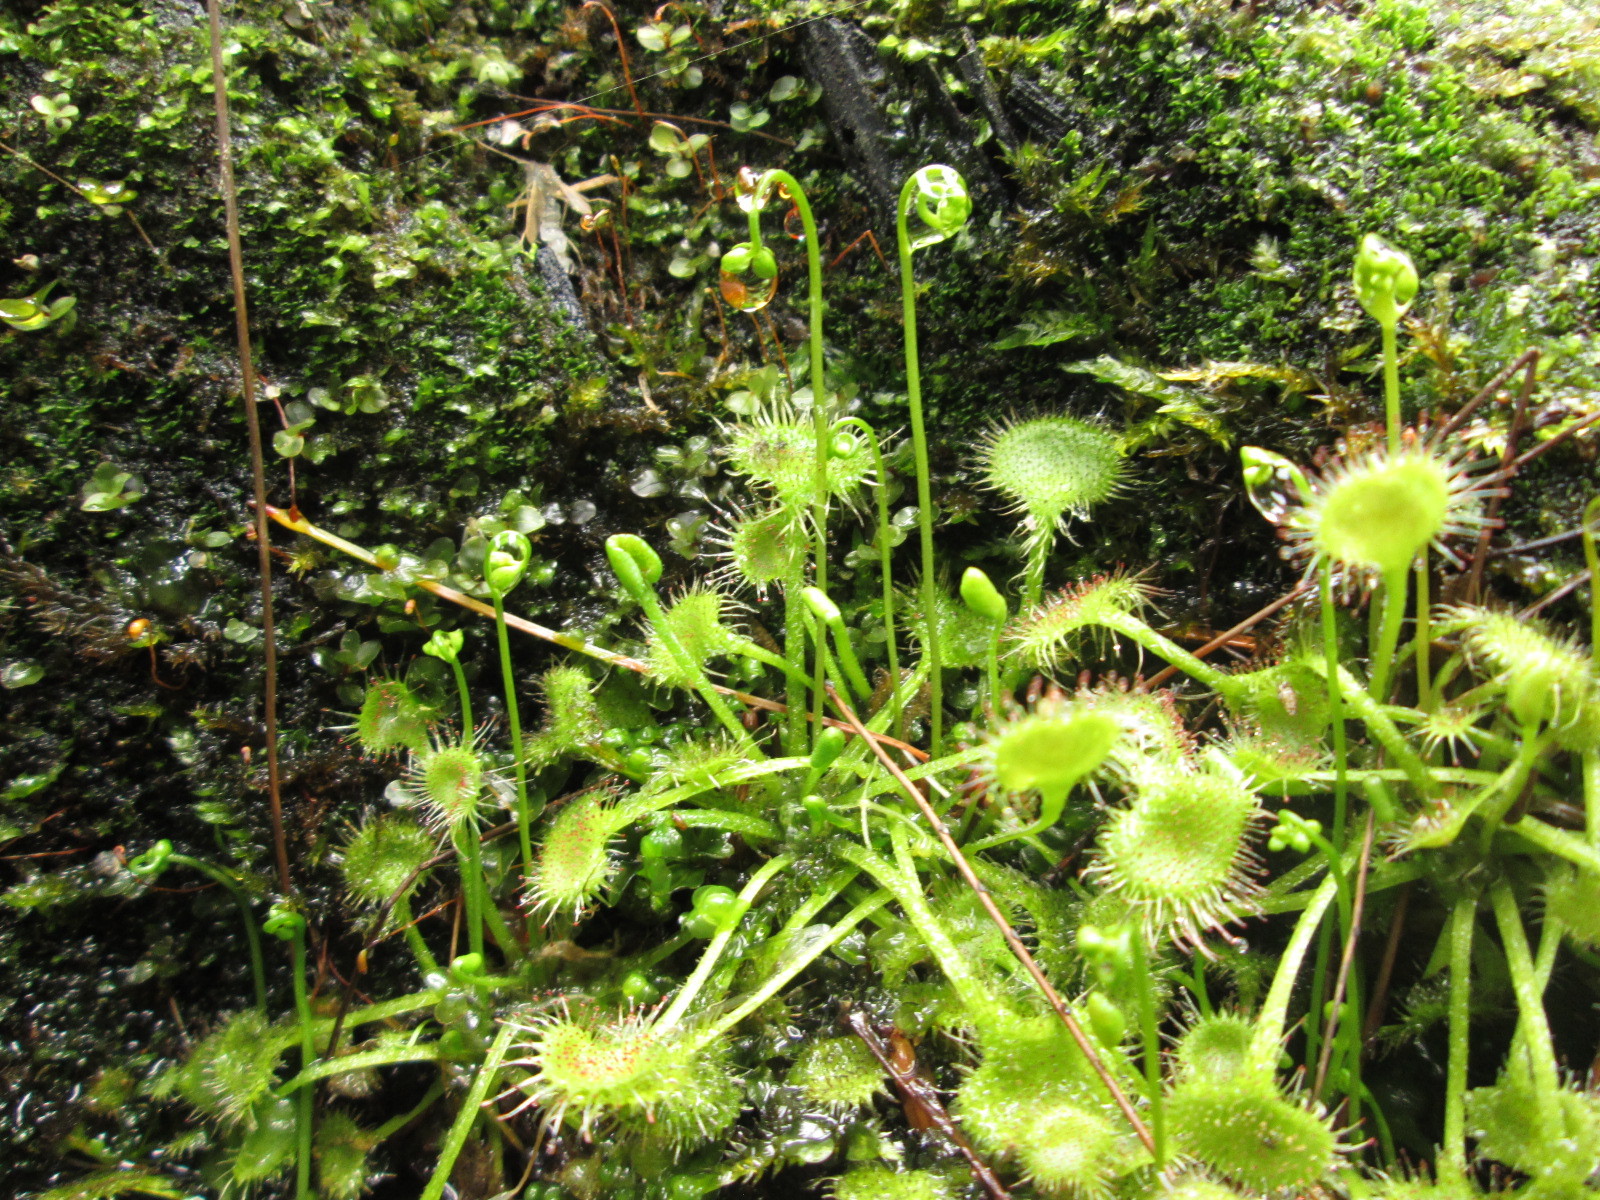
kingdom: Plantae
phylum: Tracheophyta
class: Magnoliopsida
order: Caryophyllales
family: Droseraceae
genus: Drosera
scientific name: Drosera rotundifolia
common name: Round-leaved sundew
